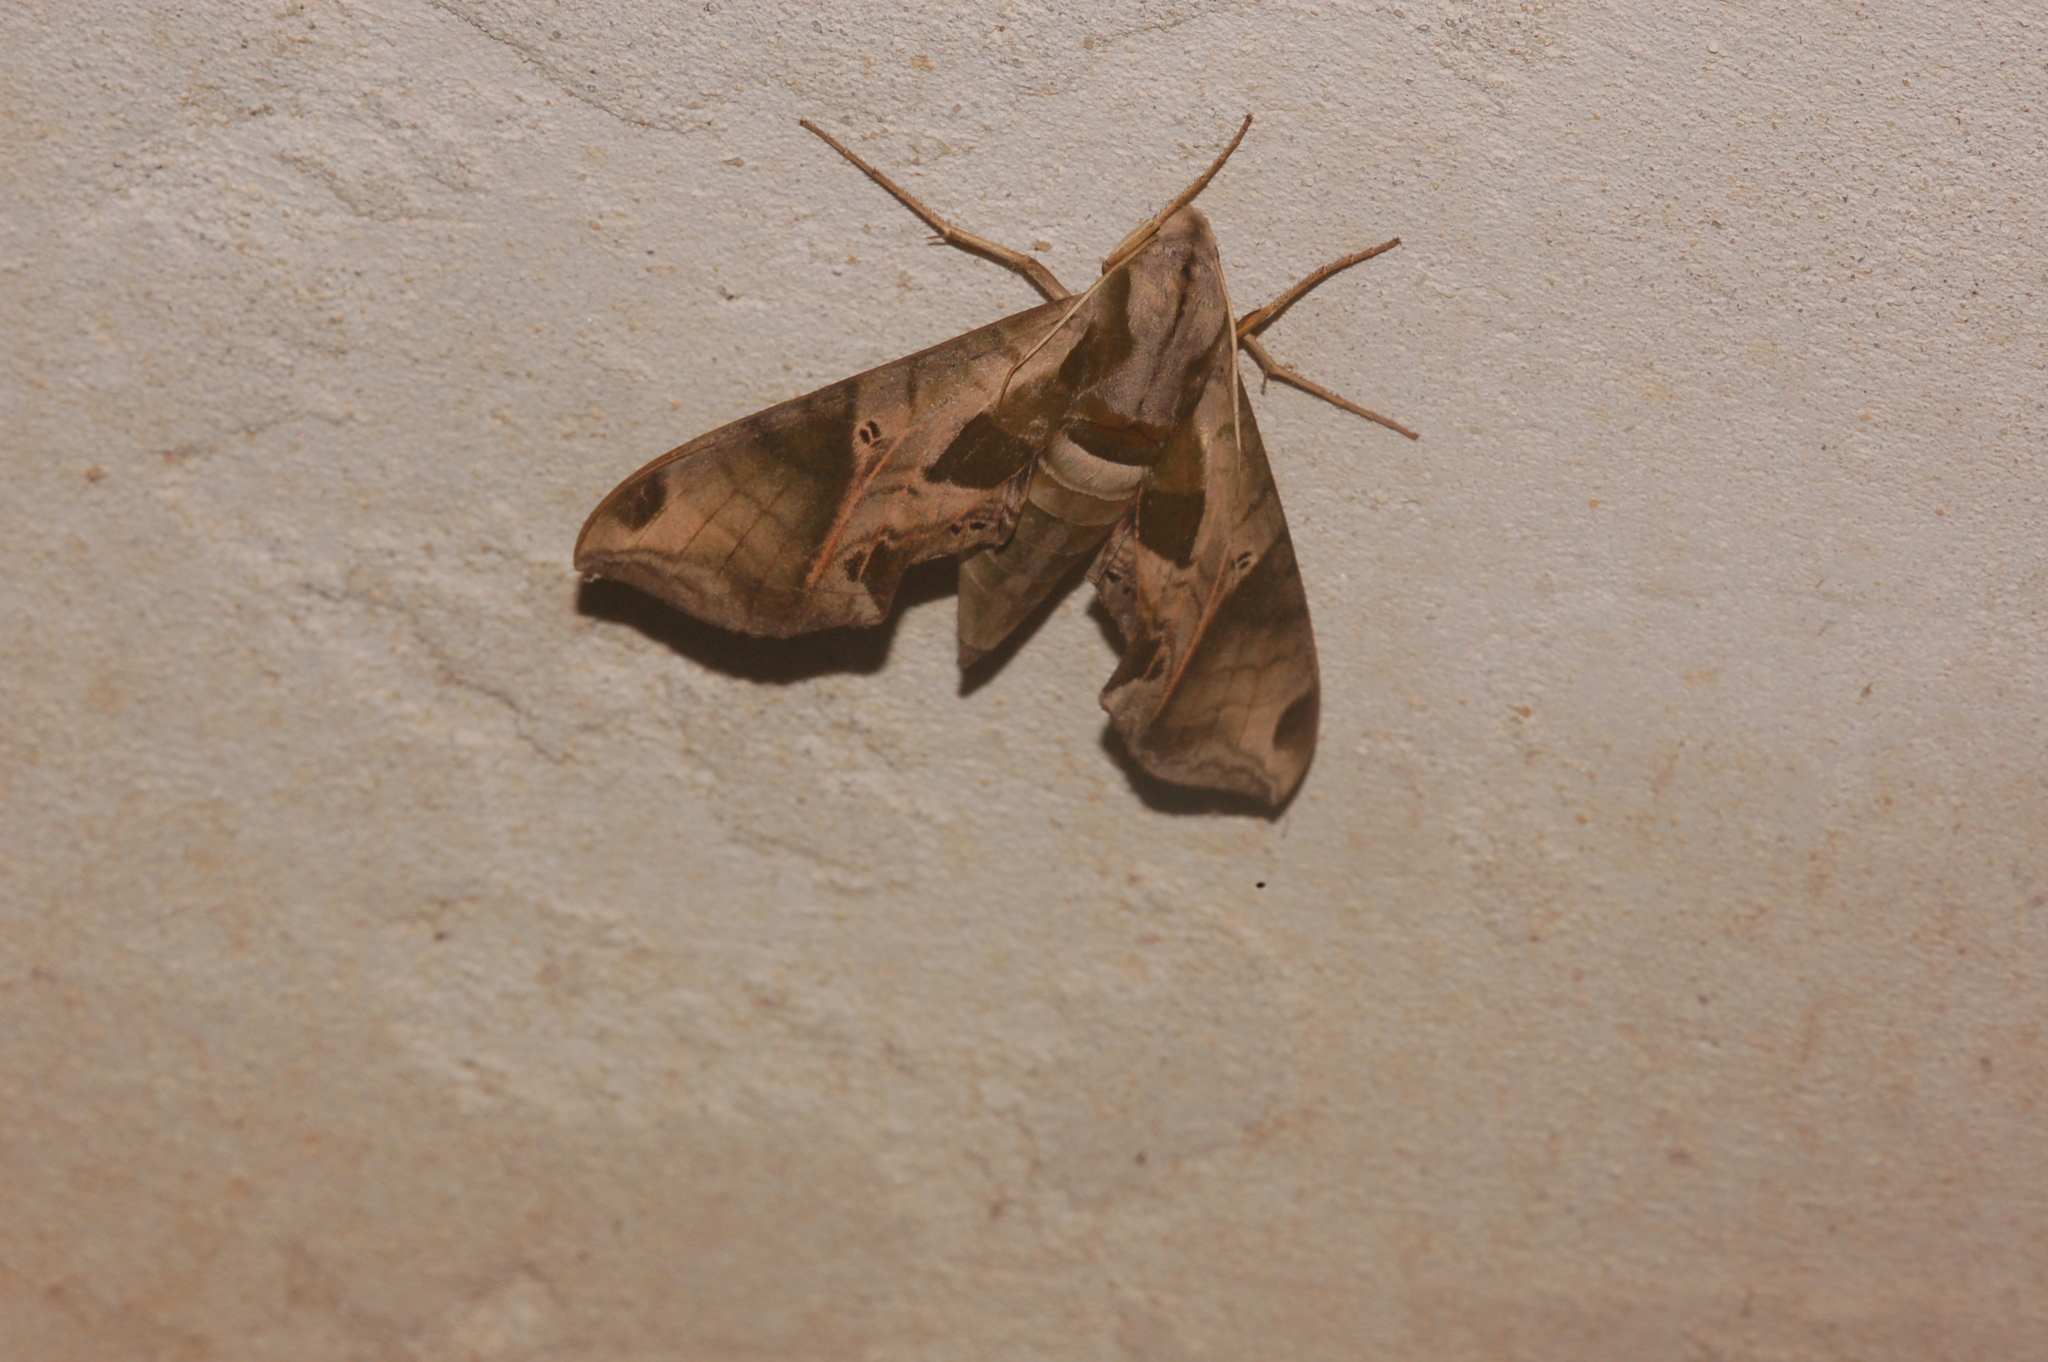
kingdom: Animalia
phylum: Arthropoda
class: Insecta
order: Lepidoptera
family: Sphingidae
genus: Eumorpha
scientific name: Eumorpha pandorus
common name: Pandora sphinx
